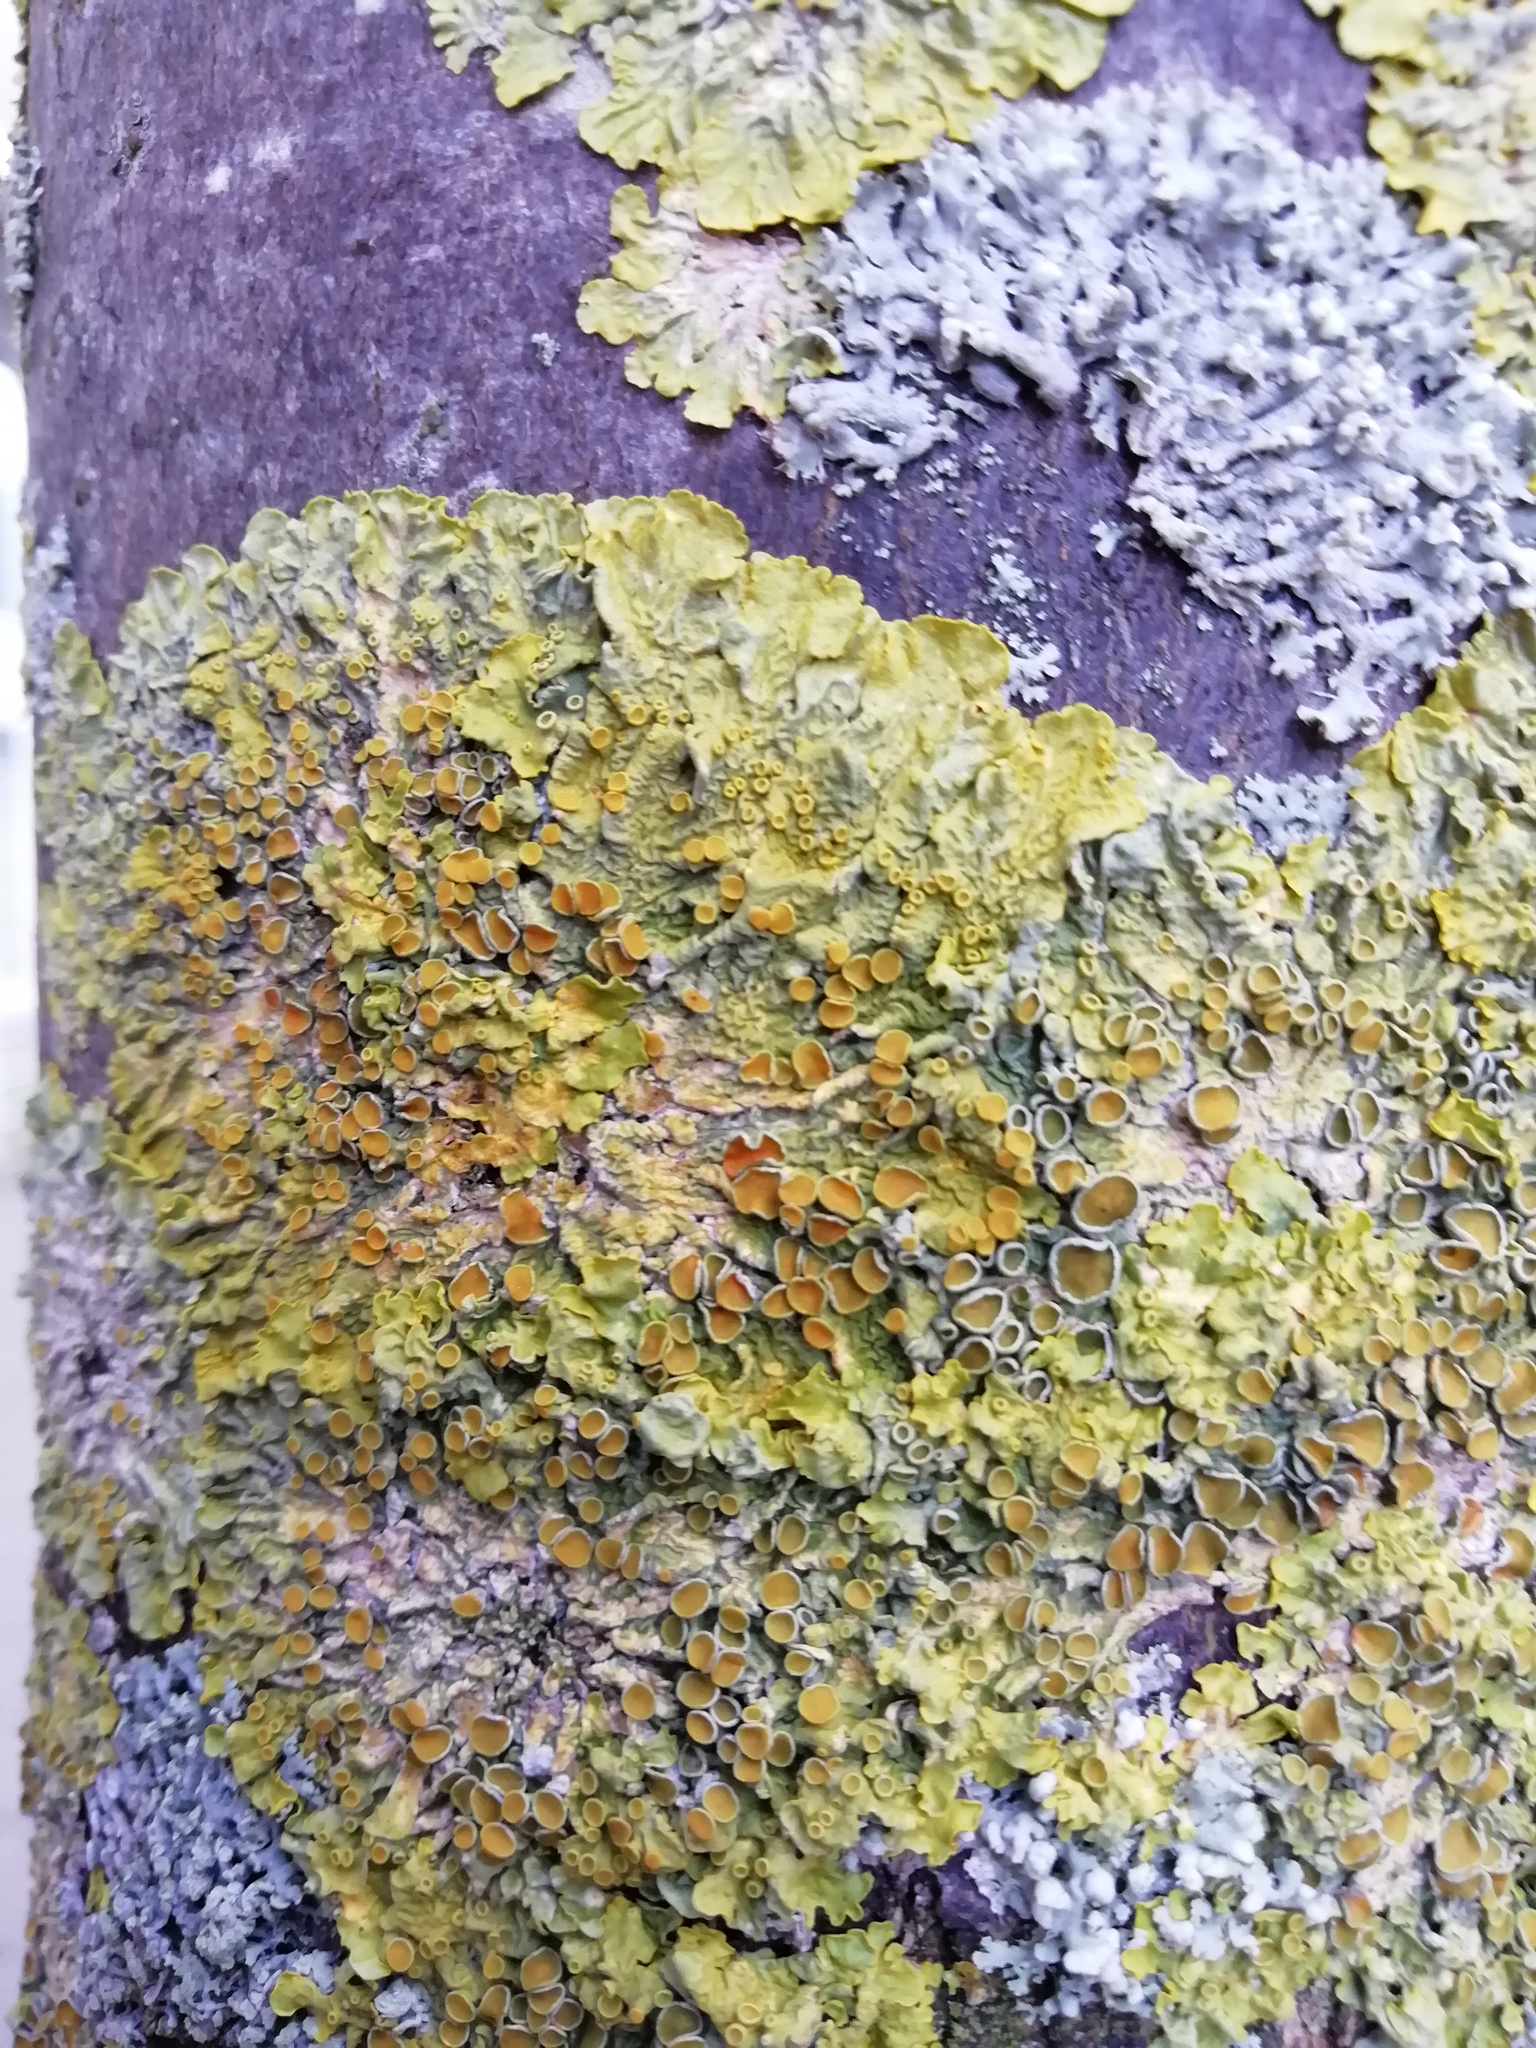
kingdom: Fungi
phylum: Ascomycota
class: Lecanoromycetes
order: Teloschistales
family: Teloschistaceae
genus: Xanthoria
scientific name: Xanthoria parietina
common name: Common orange lichen
